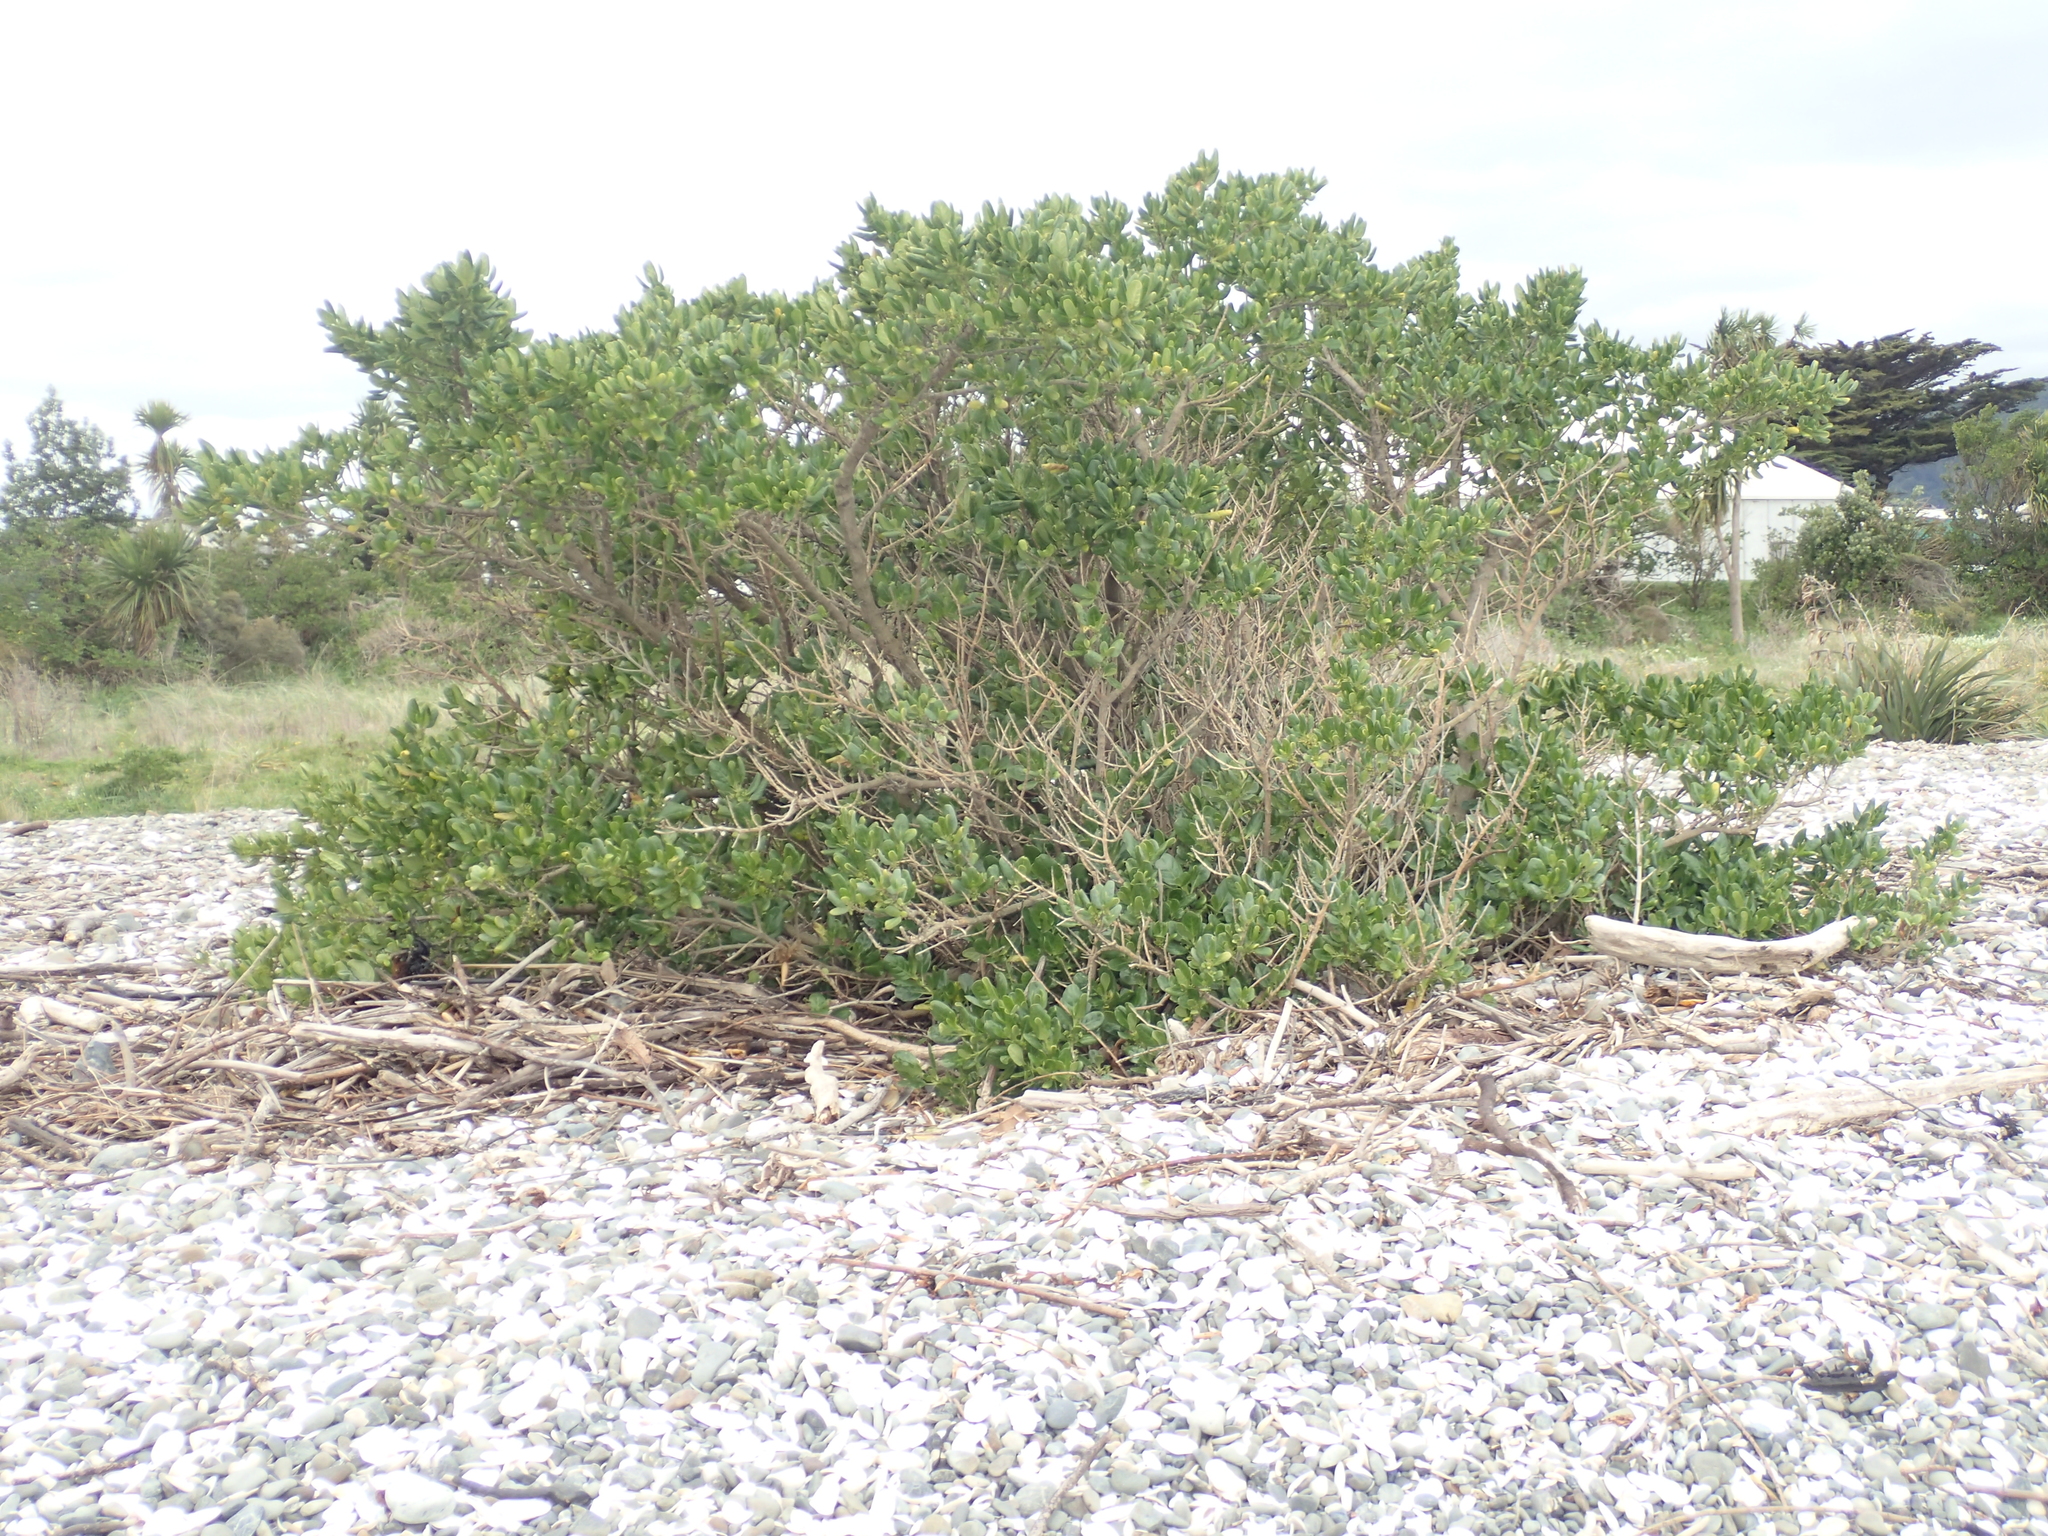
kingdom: Plantae
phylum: Tracheophyta
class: Magnoliopsida
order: Gentianales
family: Rubiaceae
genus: Coprosma
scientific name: Coprosma repens
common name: Tree bedstraw
